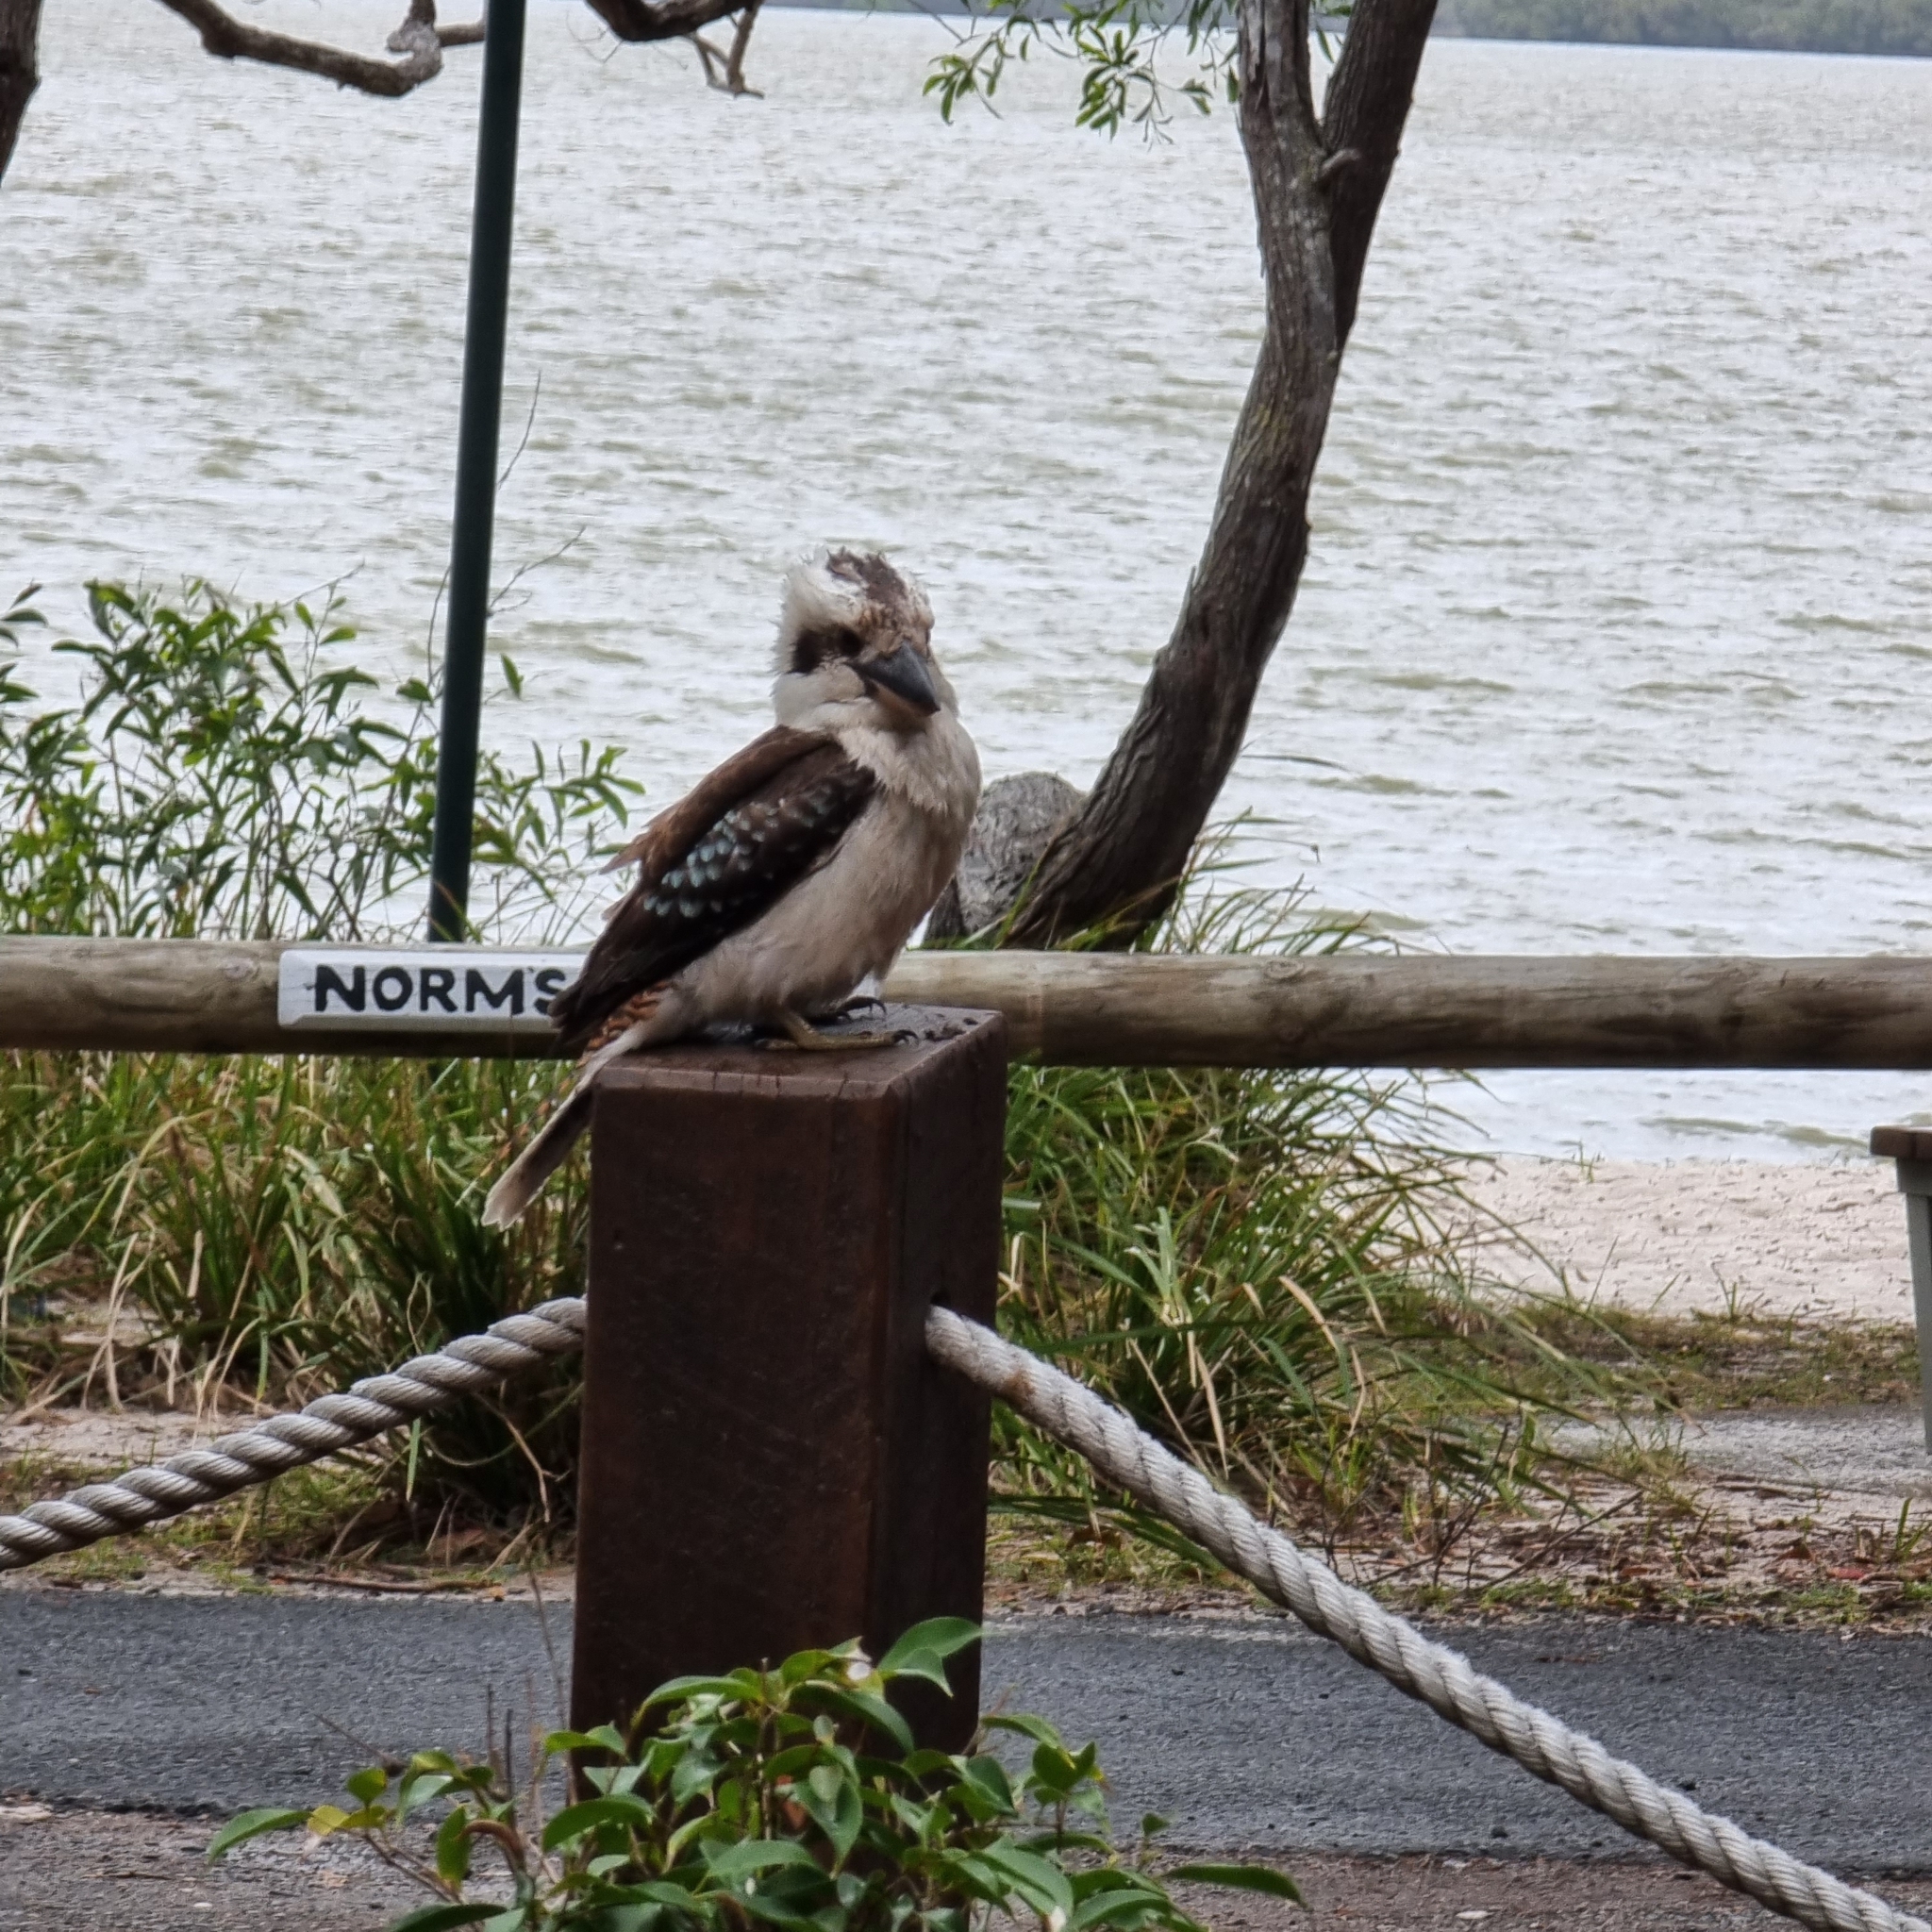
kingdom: Animalia
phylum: Chordata
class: Aves
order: Coraciiformes
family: Alcedinidae
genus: Dacelo
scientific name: Dacelo novaeguineae
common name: Laughing kookaburra
